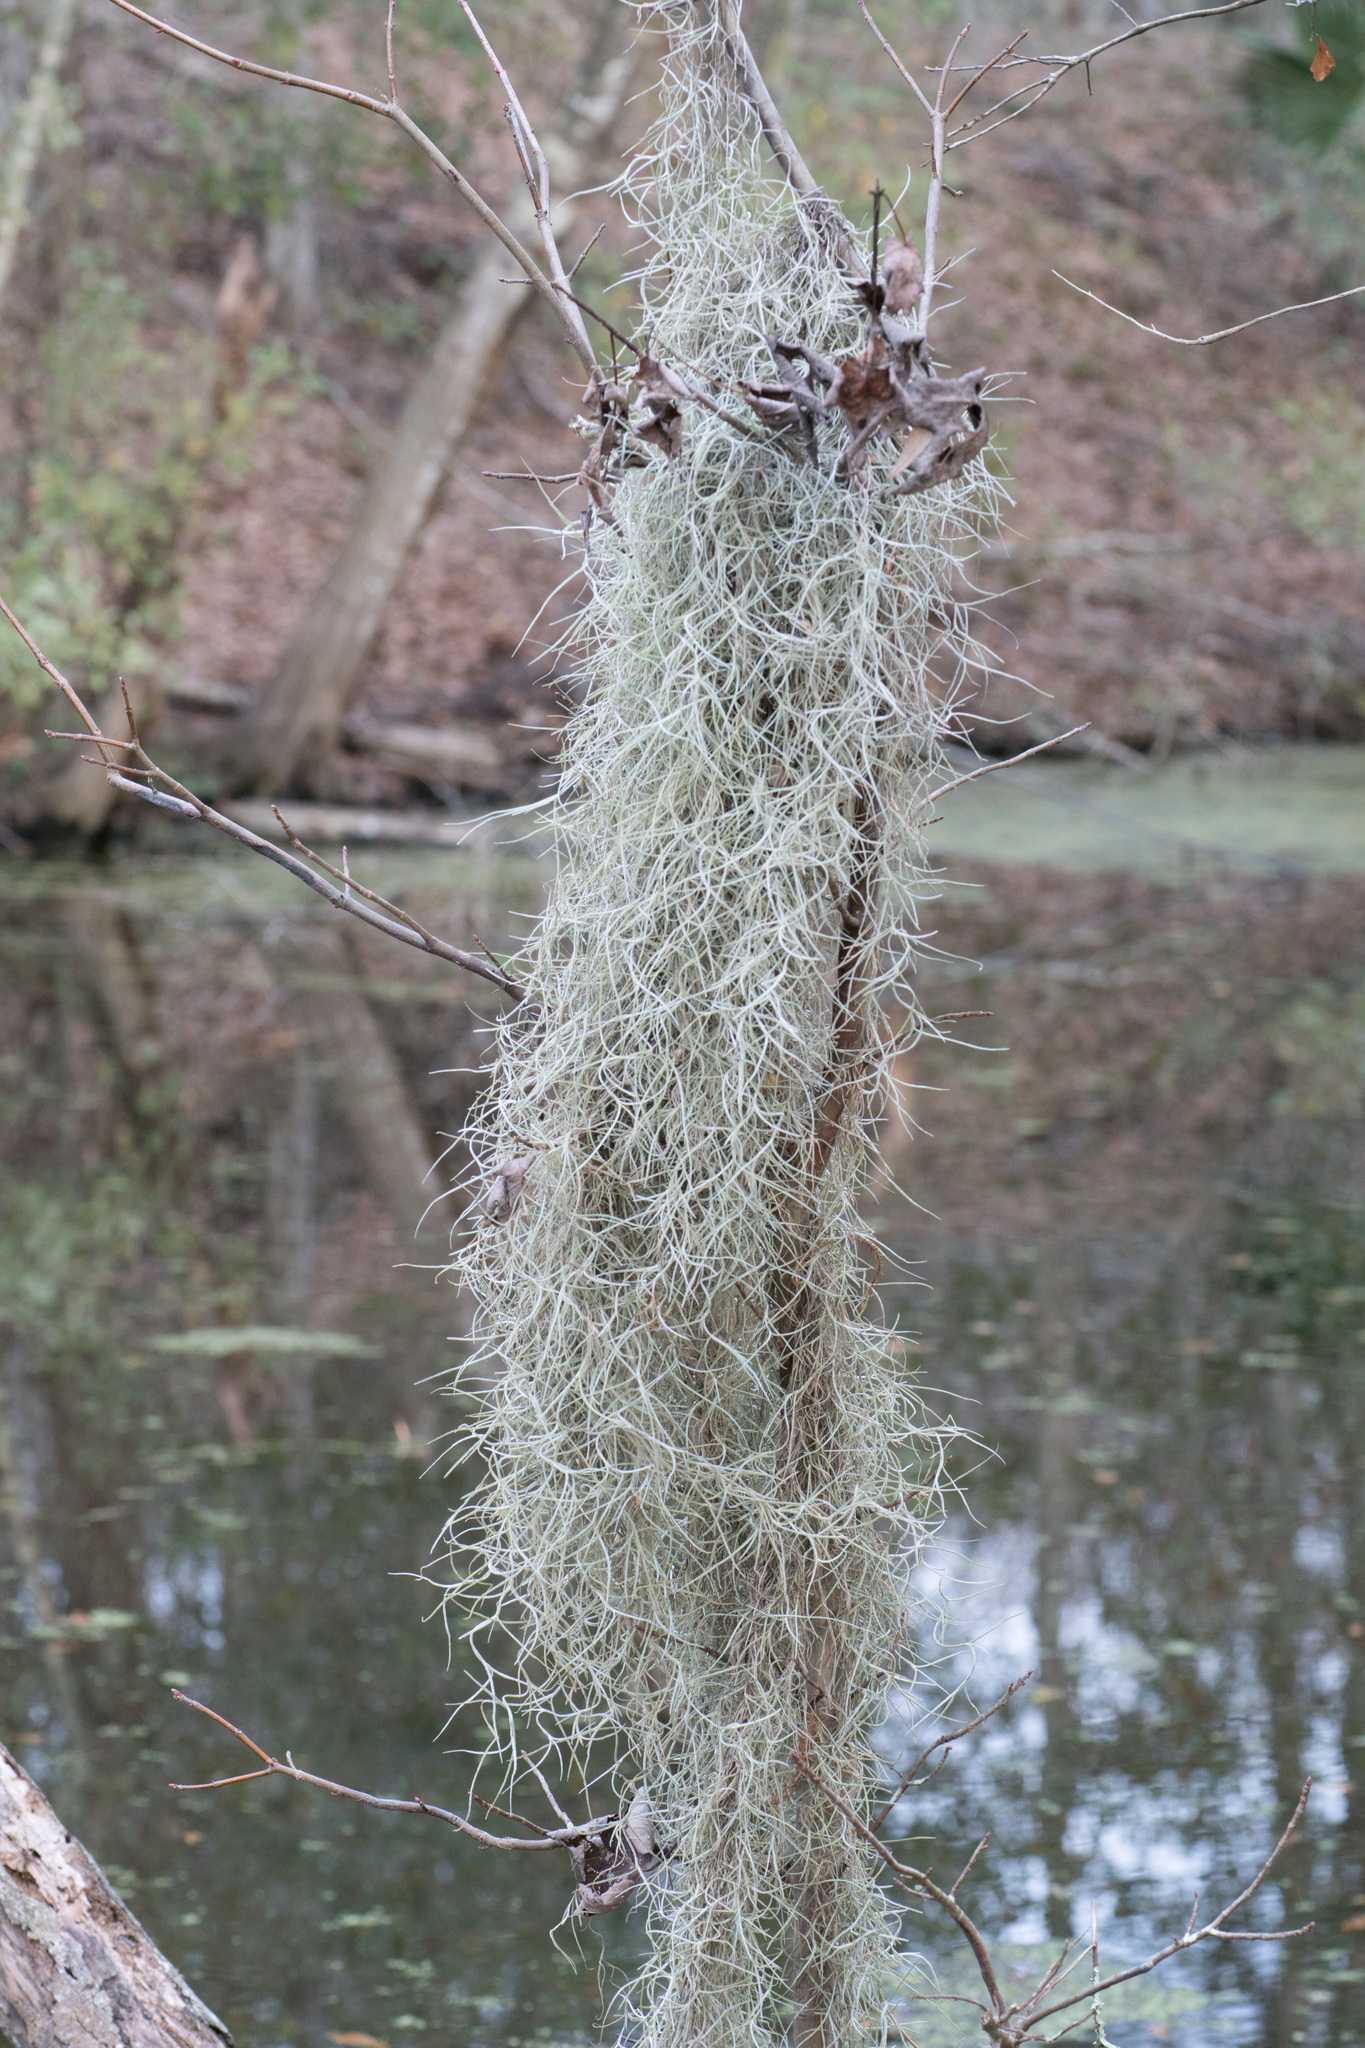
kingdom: Plantae
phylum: Tracheophyta
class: Liliopsida
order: Poales
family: Bromeliaceae
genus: Tillandsia
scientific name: Tillandsia usneoides
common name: Spanish moss
